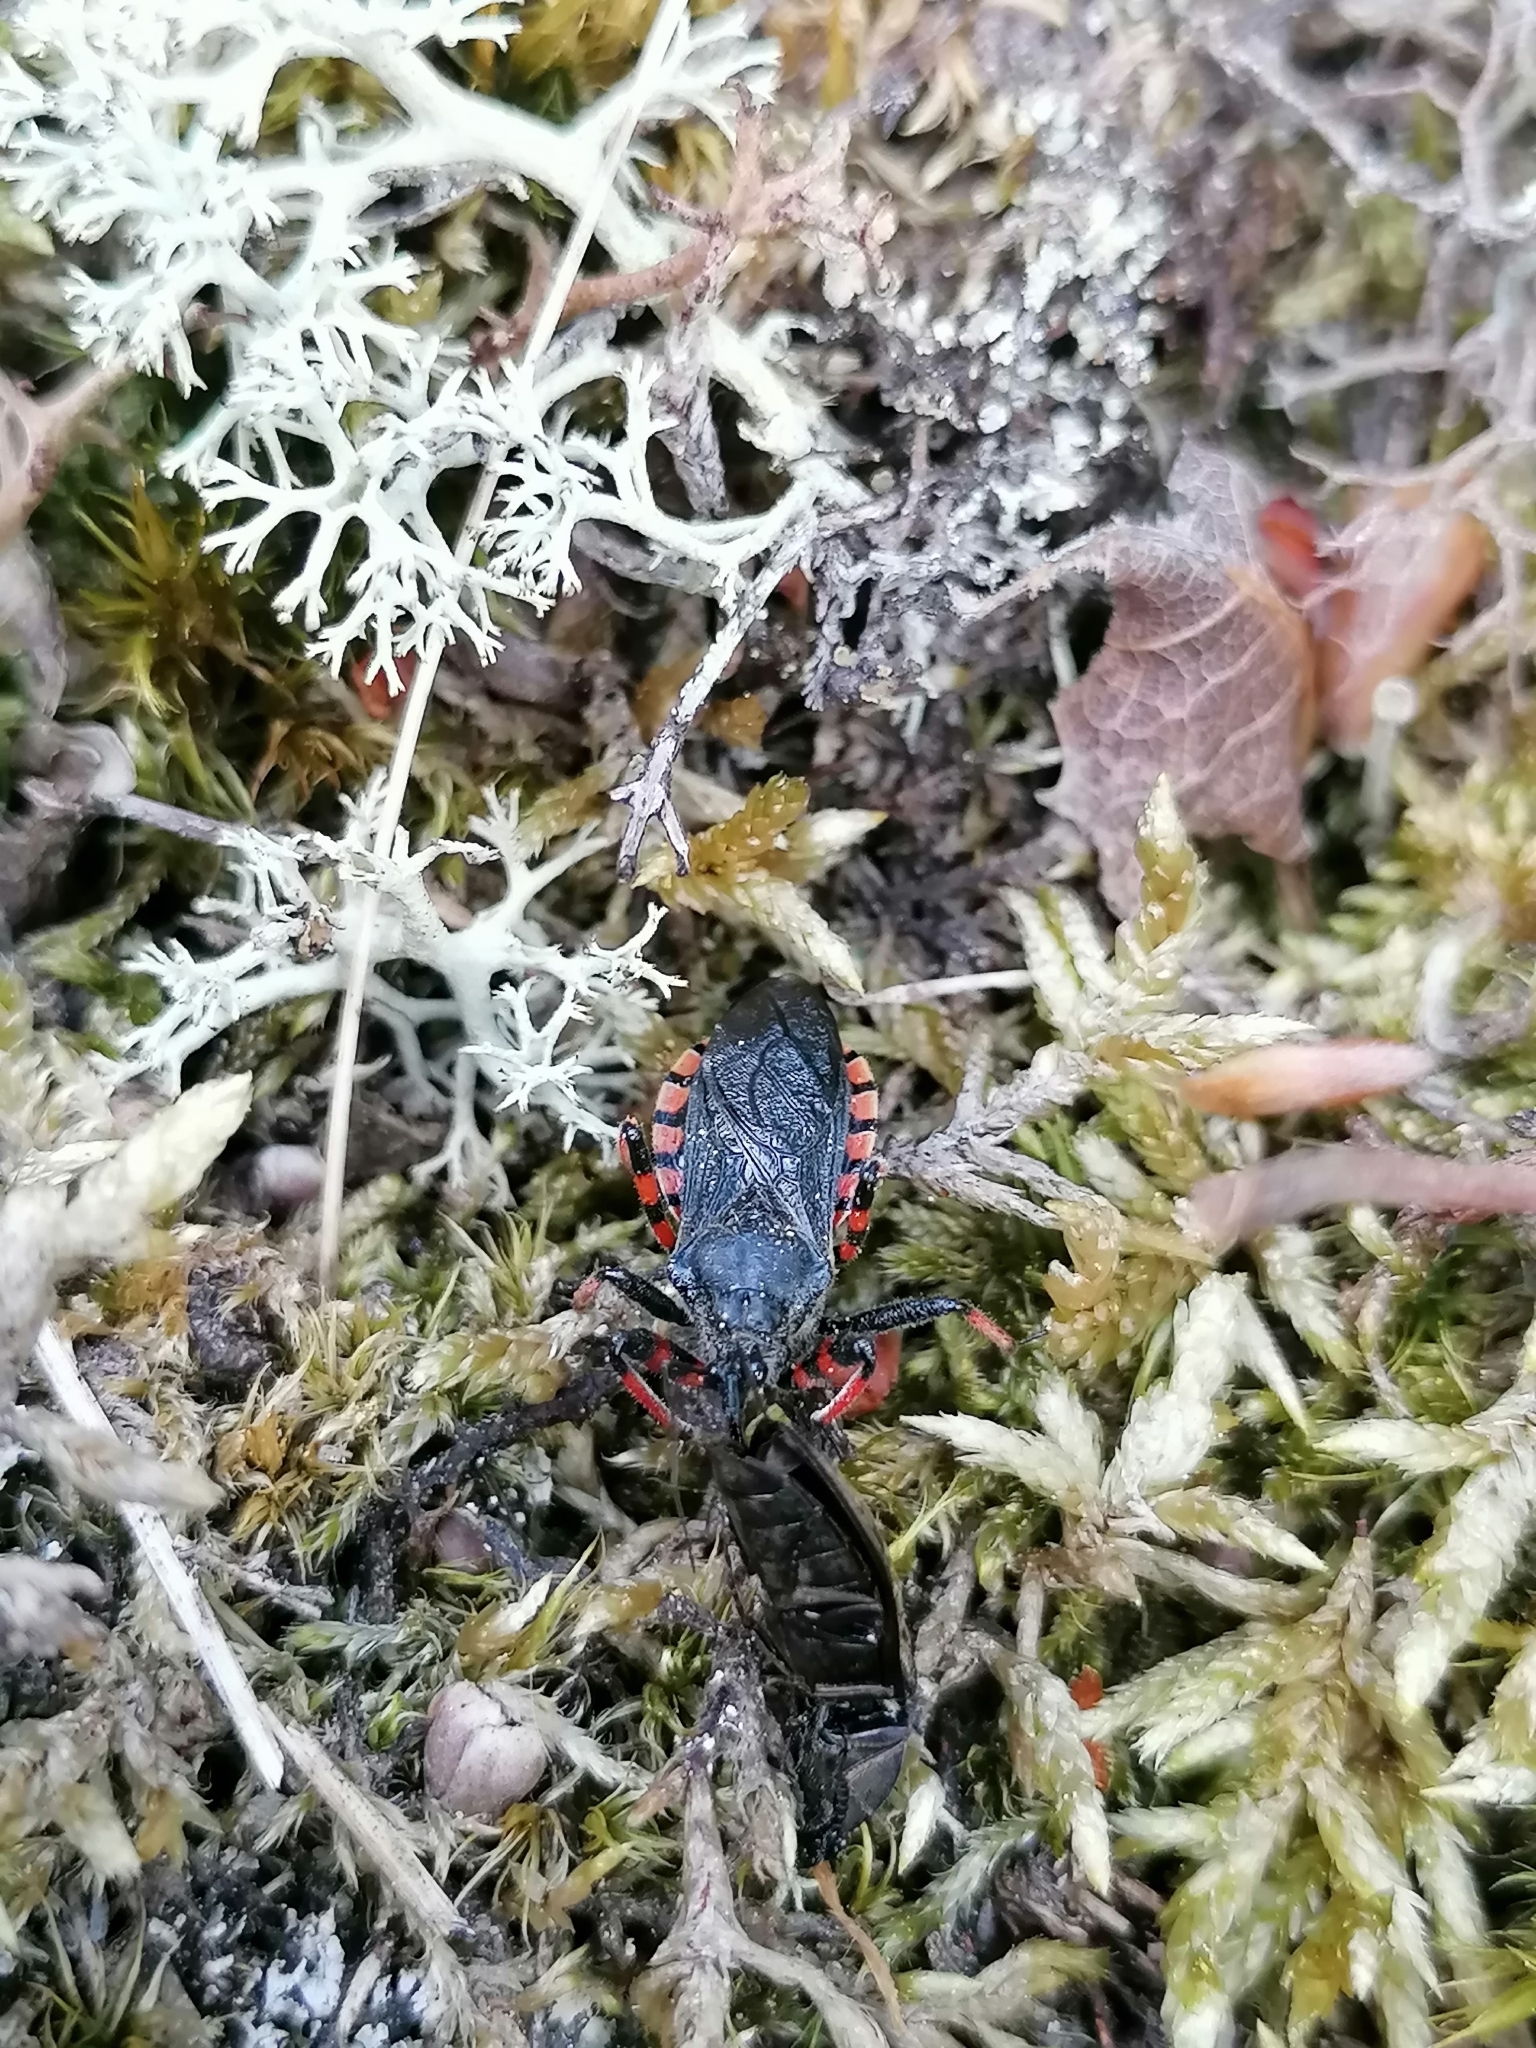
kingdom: Animalia
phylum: Arthropoda
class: Insecta
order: Hemiptera
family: Reduviidae
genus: Rhynocoris
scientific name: Rhynocoris annulatus
